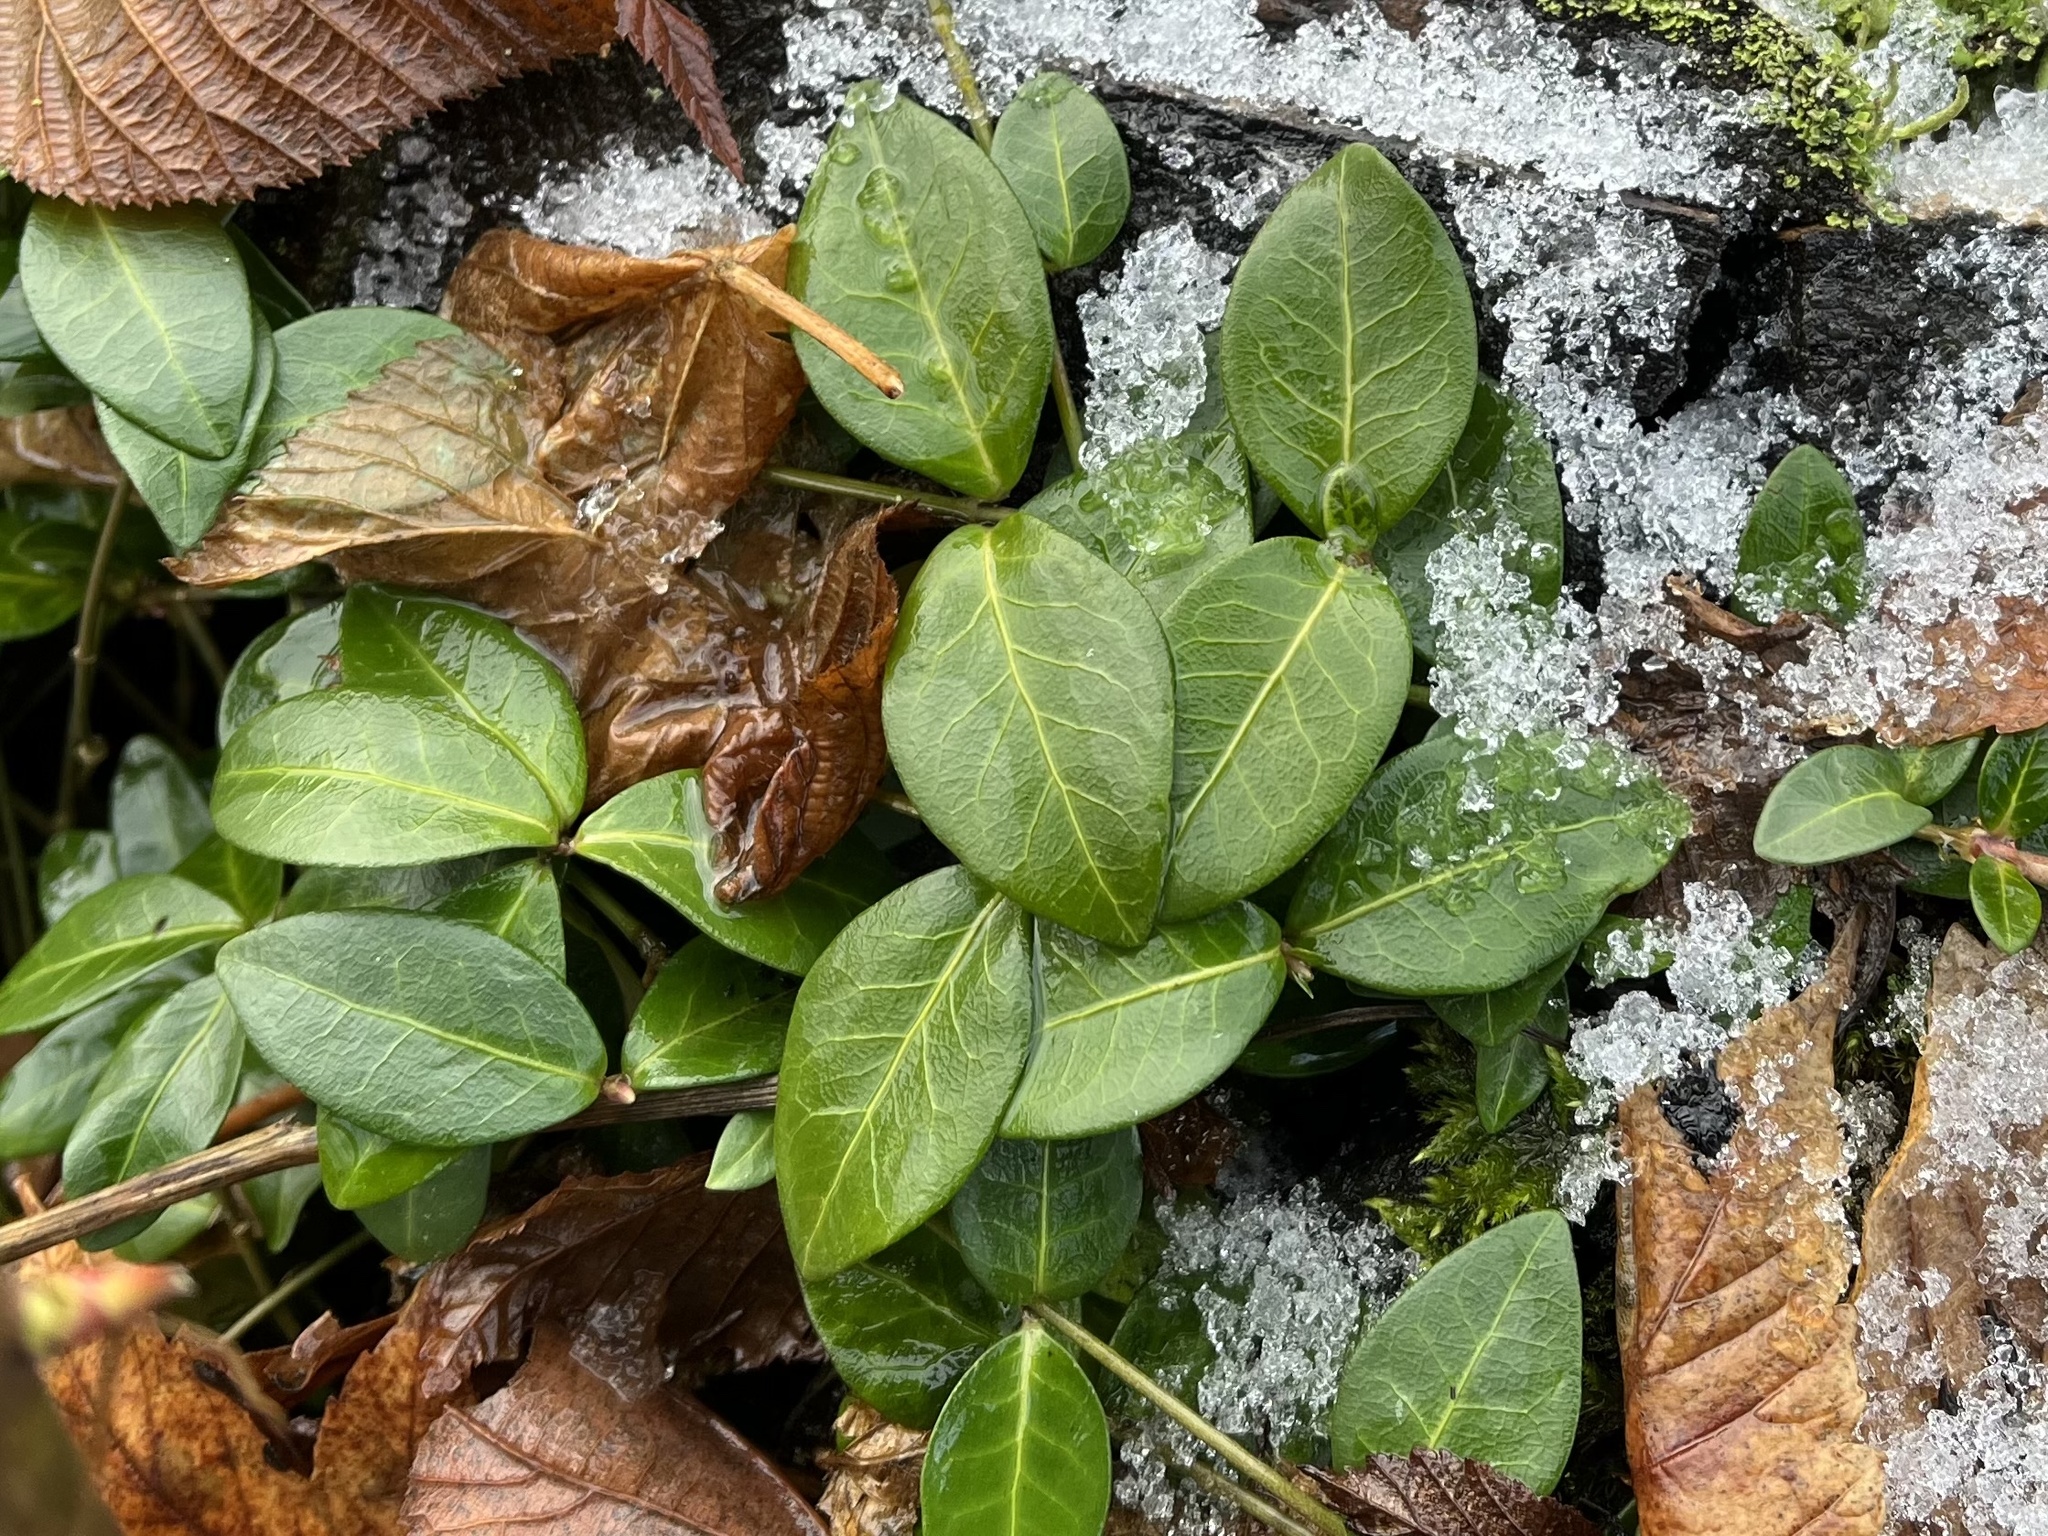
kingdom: Plantae
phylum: Tracheophyta
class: Magnoliopsida
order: Gentianales
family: Apocynaceae
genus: Vinca
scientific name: Vinca minor
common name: Lesser periwinkle
